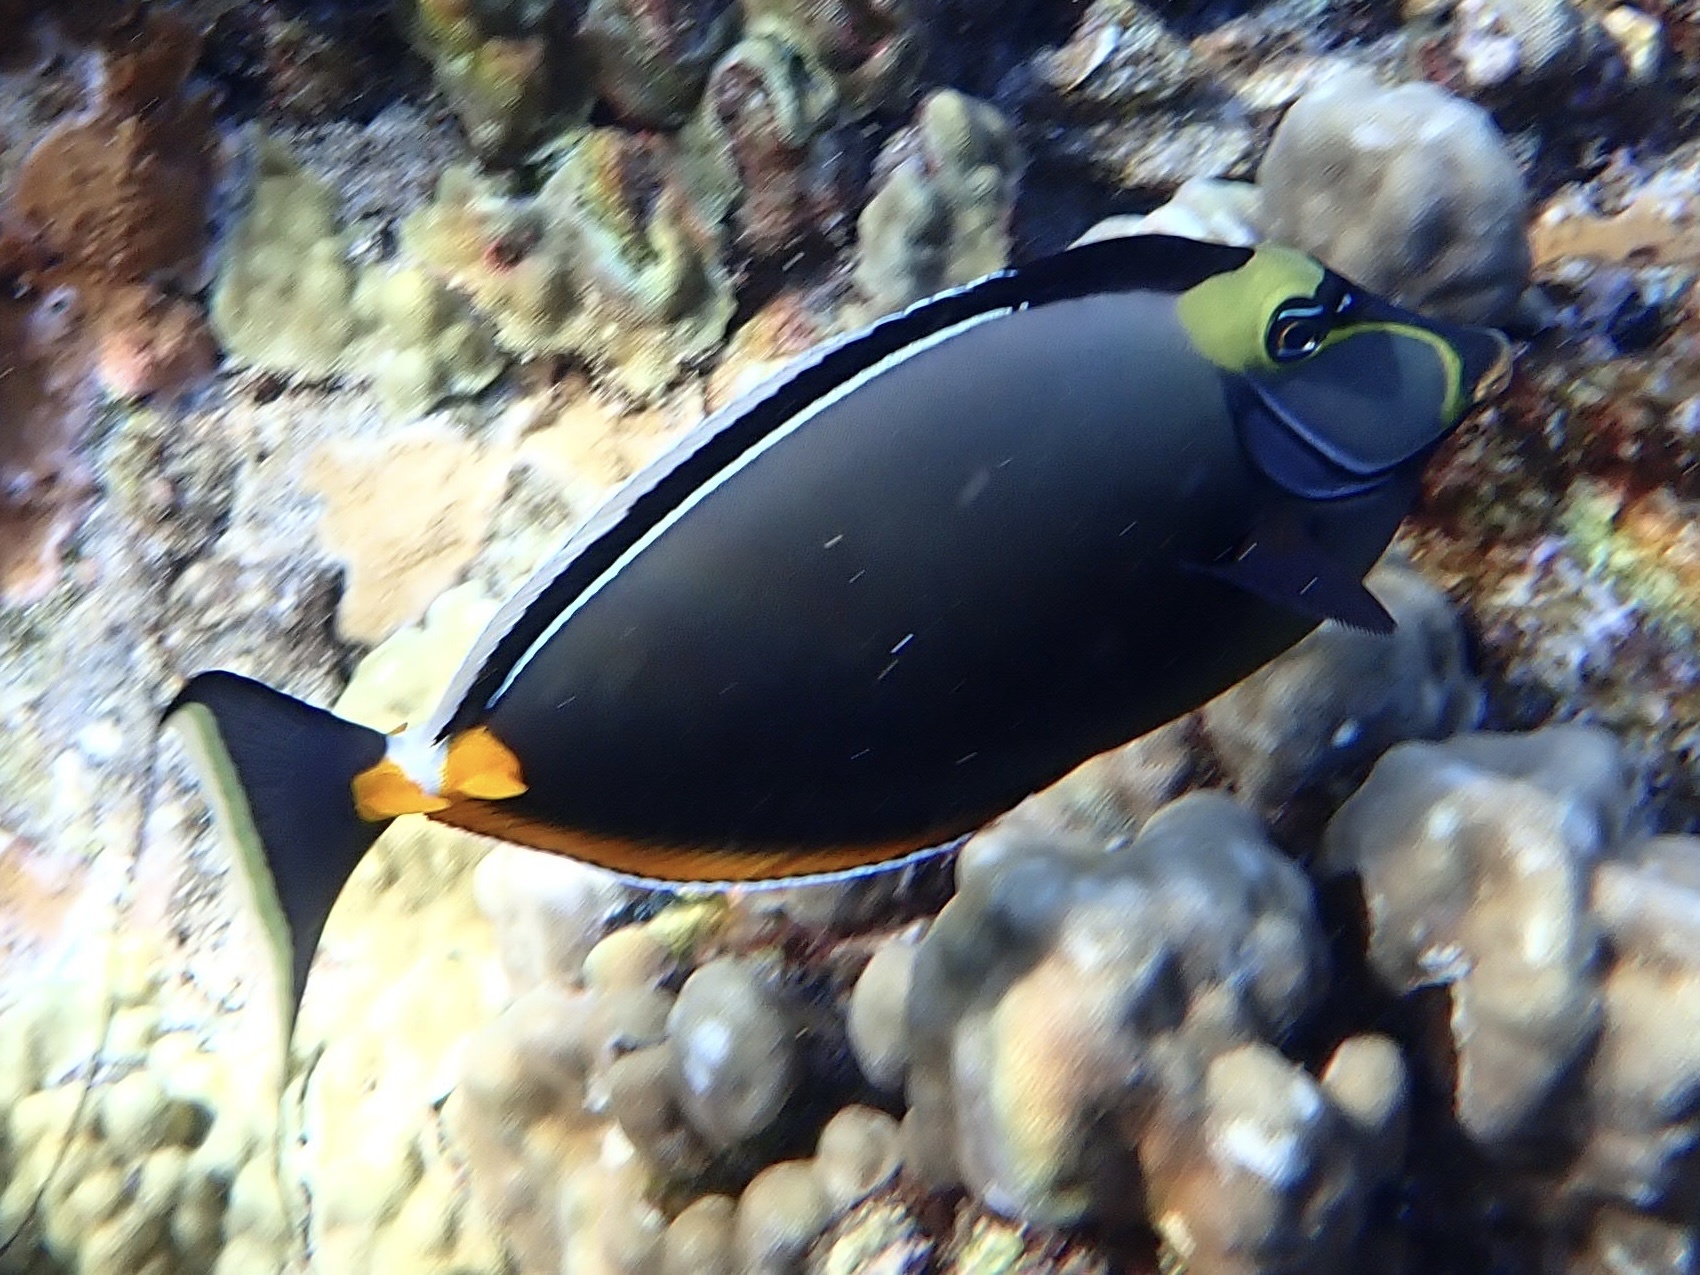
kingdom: Animalia
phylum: Chordata
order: Perciformes
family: Acanthuridae
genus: Naso
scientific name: Naso lituratus
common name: Orangespine unicornfish
